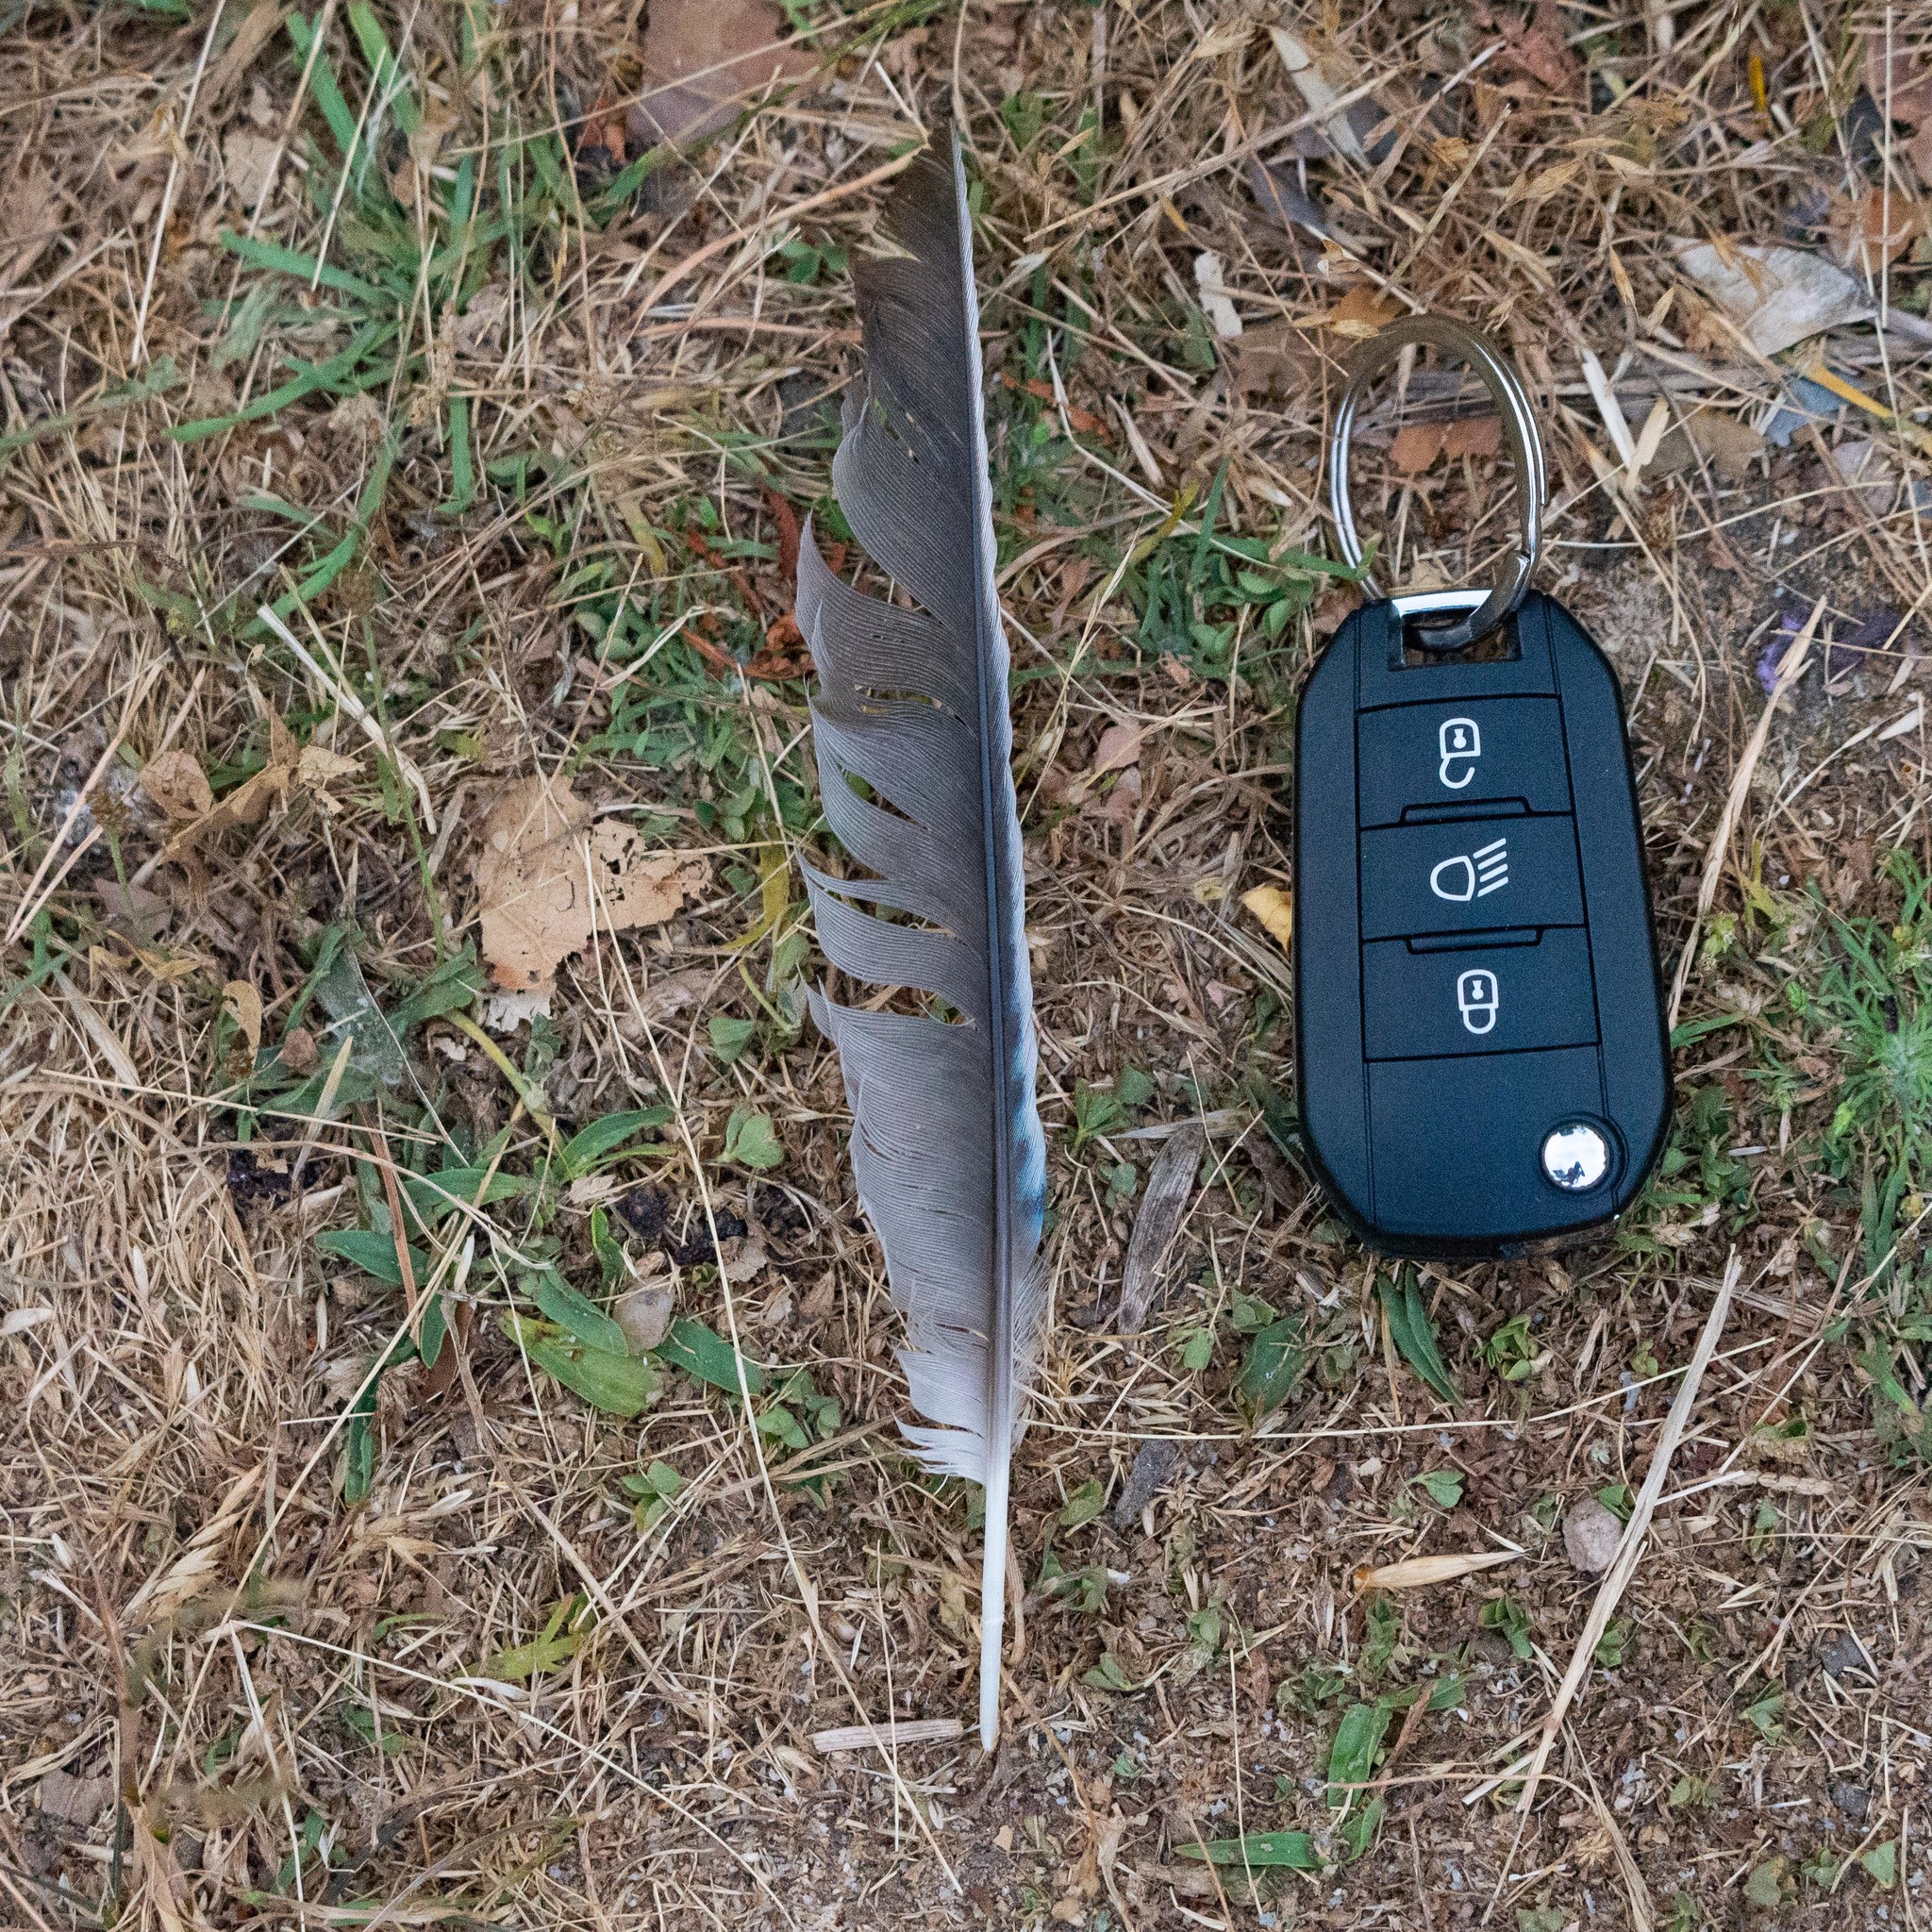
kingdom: Animalia
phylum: Chordata
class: Aves
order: Passeriformes
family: Corvidae
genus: Garrulus
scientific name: Garrulus glandarius
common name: Eurasian jay
